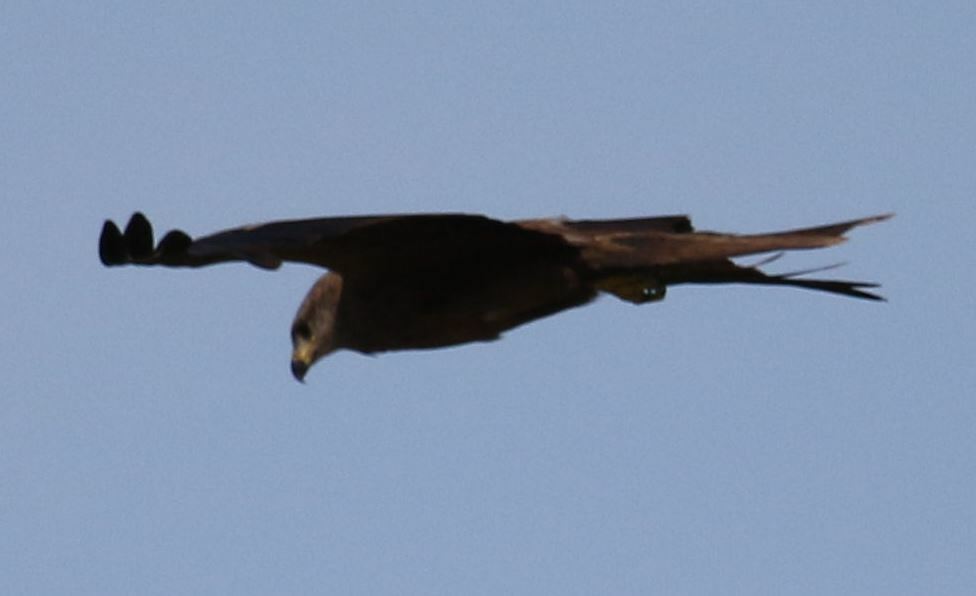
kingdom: Animalia
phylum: Chordata
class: Aves
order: Accipitriformes
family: Accipitridae
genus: Milvus
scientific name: Milvus migrans
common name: Black kite
